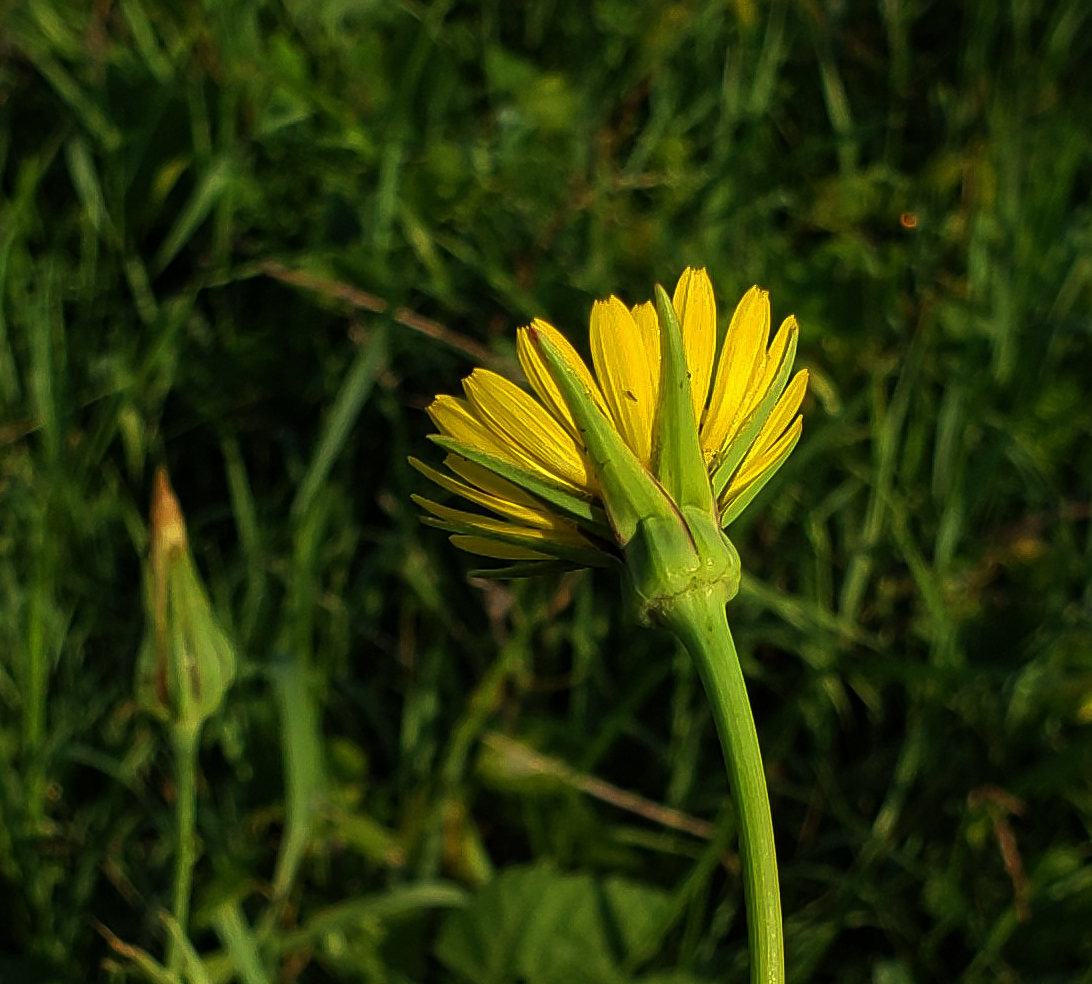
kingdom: Plantae
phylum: Tracheophyta
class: Magnoliopsida
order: Asterales
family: Asteraceae
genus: Tragopogon
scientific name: Tragopogon pratensis
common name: Goat's-beard
